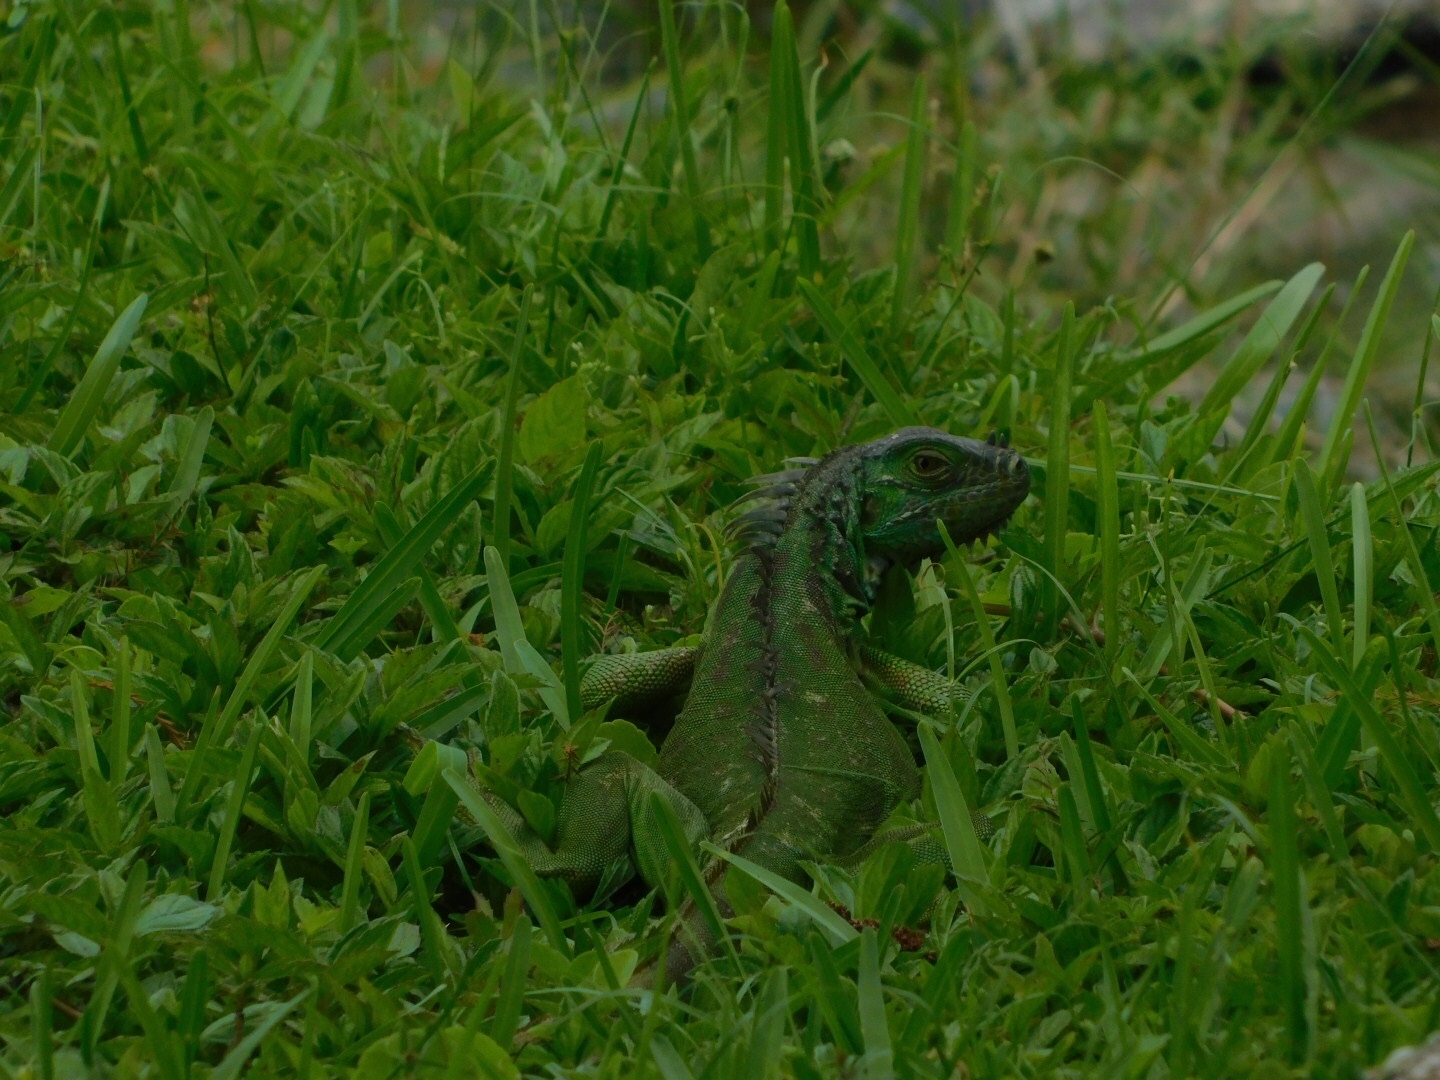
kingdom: Animalia
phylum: Chordata
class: Squamata
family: Iguanidae
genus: Iguana
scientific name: Iguana iguana
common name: Green iguana
